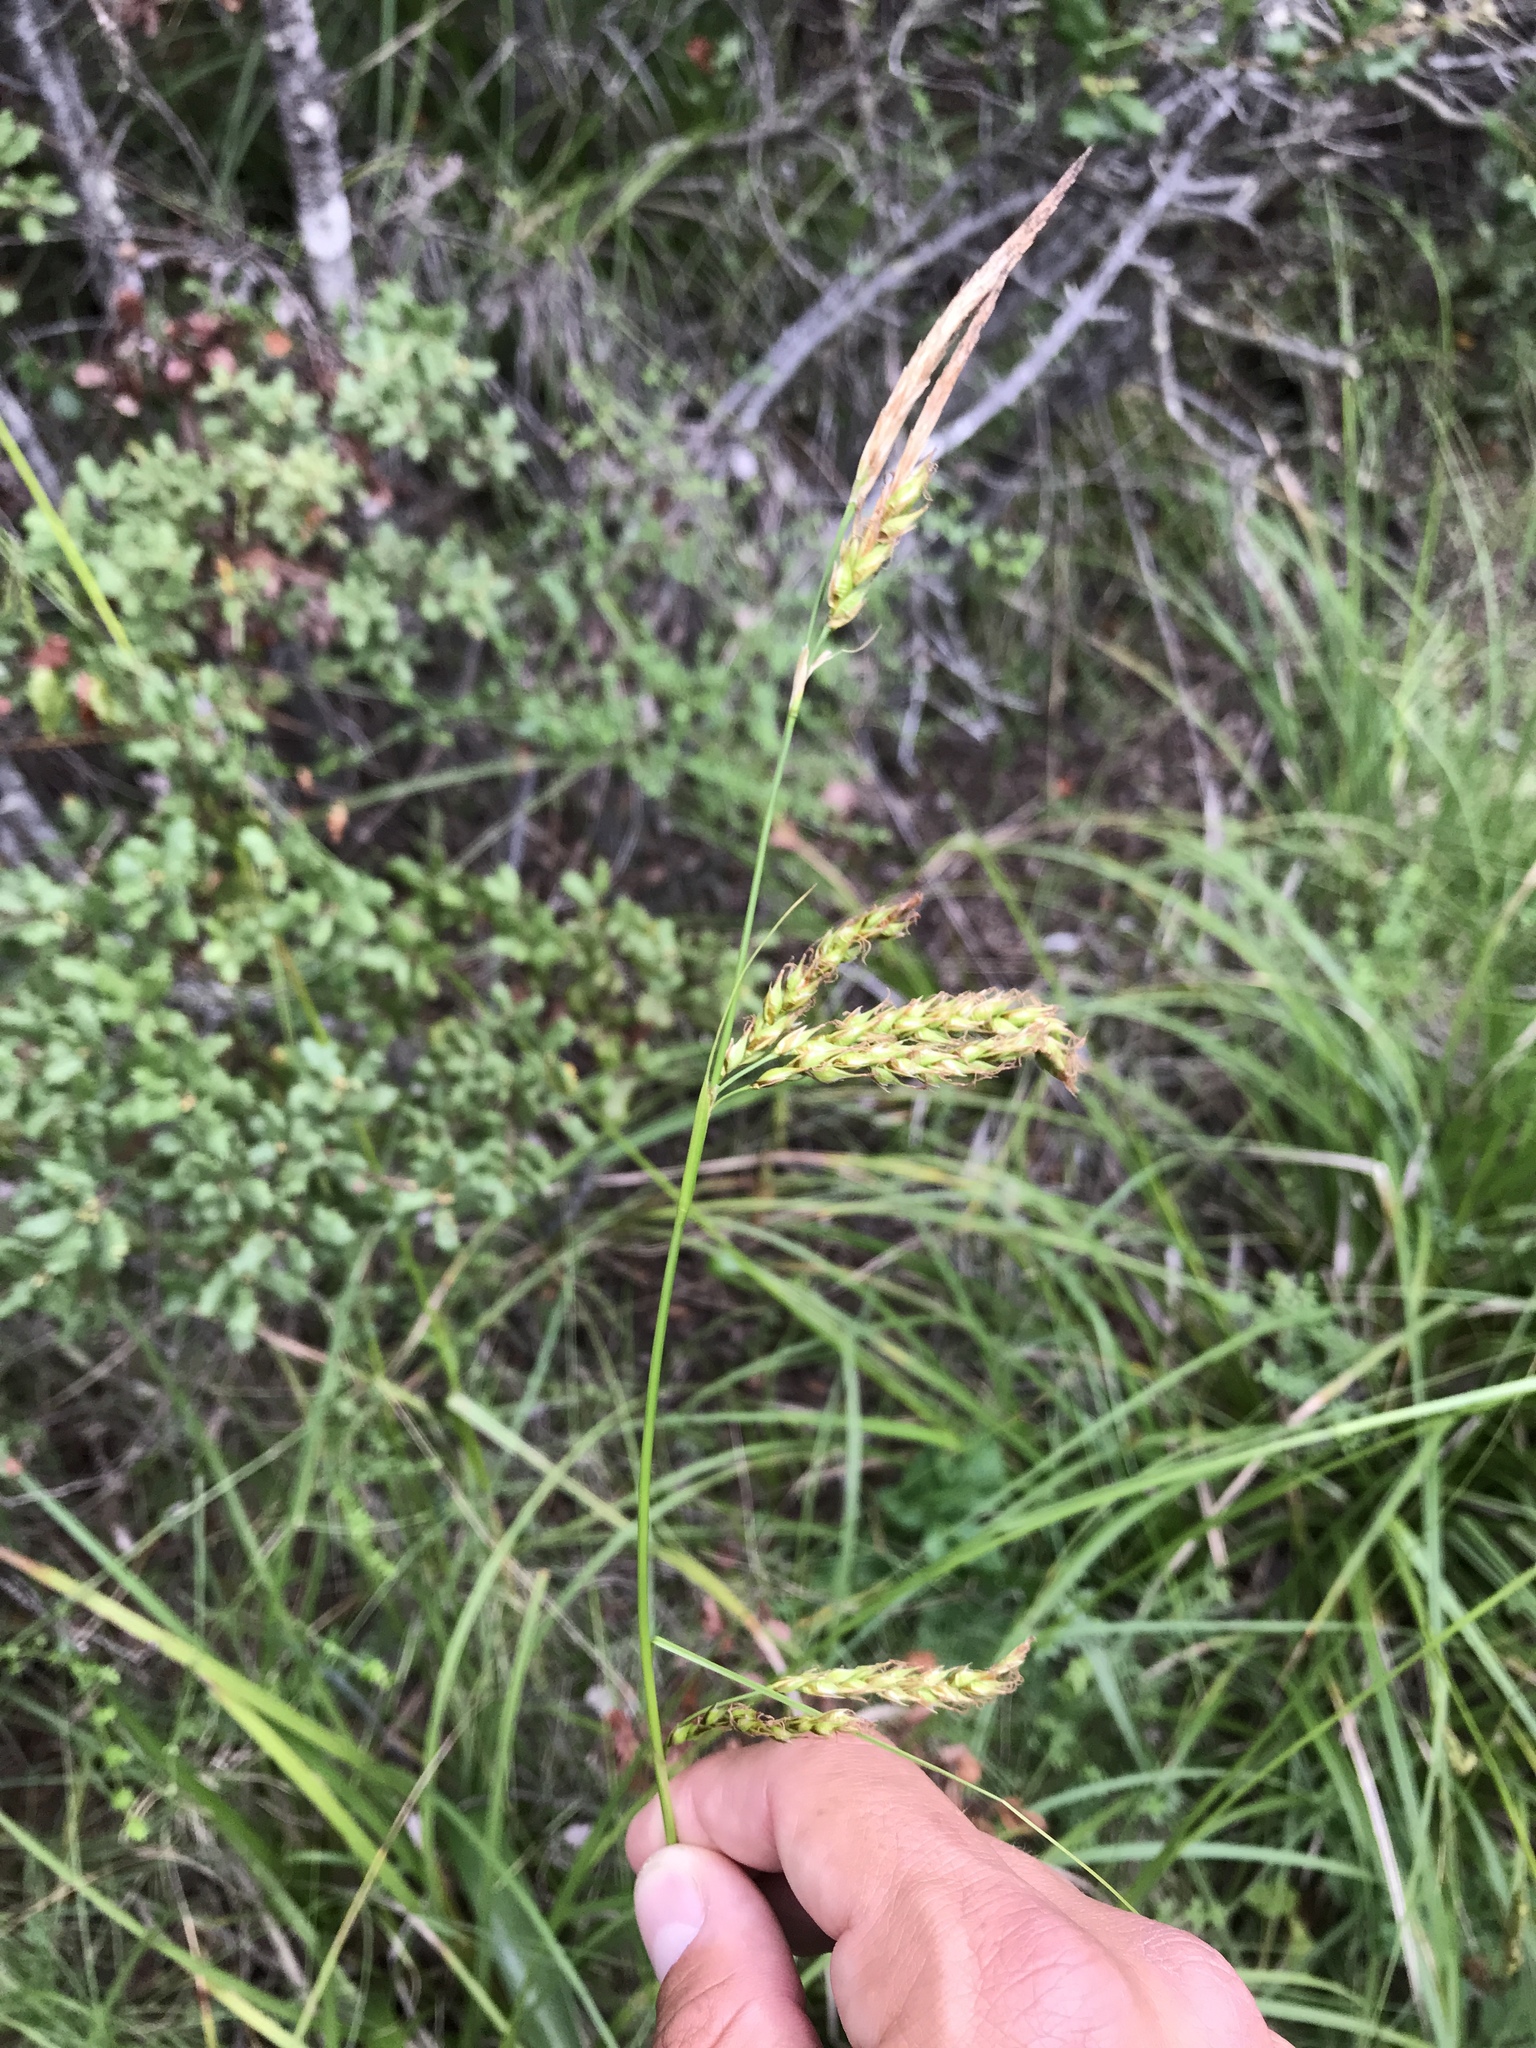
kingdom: Plantae
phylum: Tracheophyta
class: Liliopsida
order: Poales
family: Cyperaceae
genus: Carex
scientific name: Carex obispoensis
